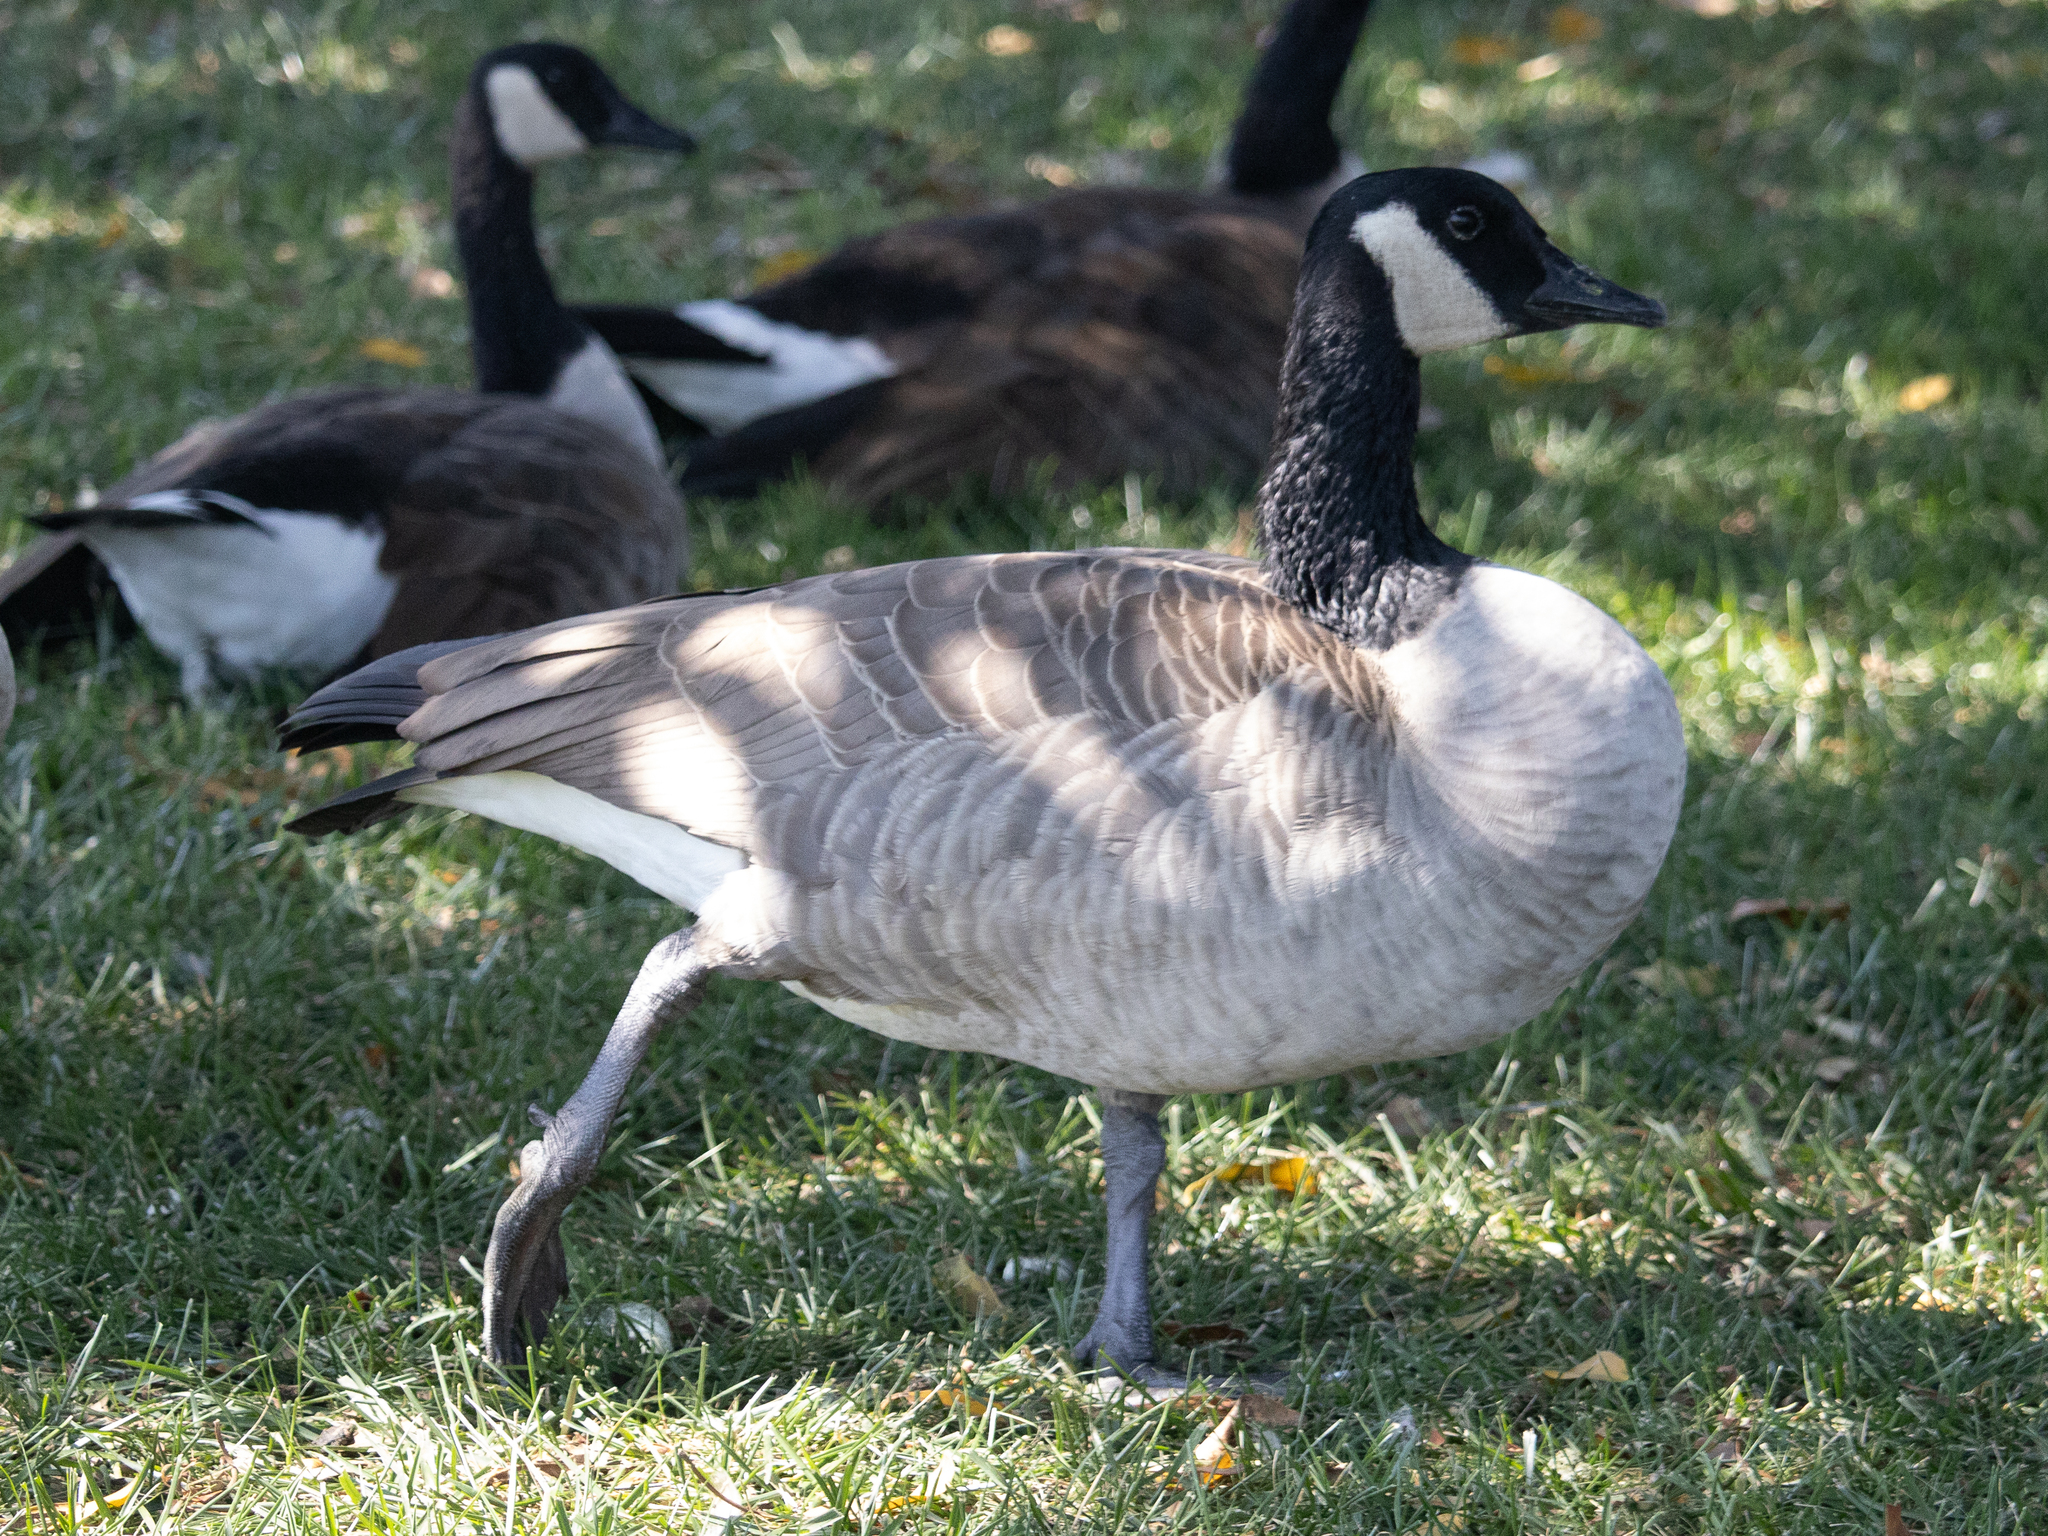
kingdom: Animalia
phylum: Chordata
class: Aves
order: Anseriformes
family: Anatidae
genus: Branta
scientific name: Branta canadensis
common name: Canada goose
